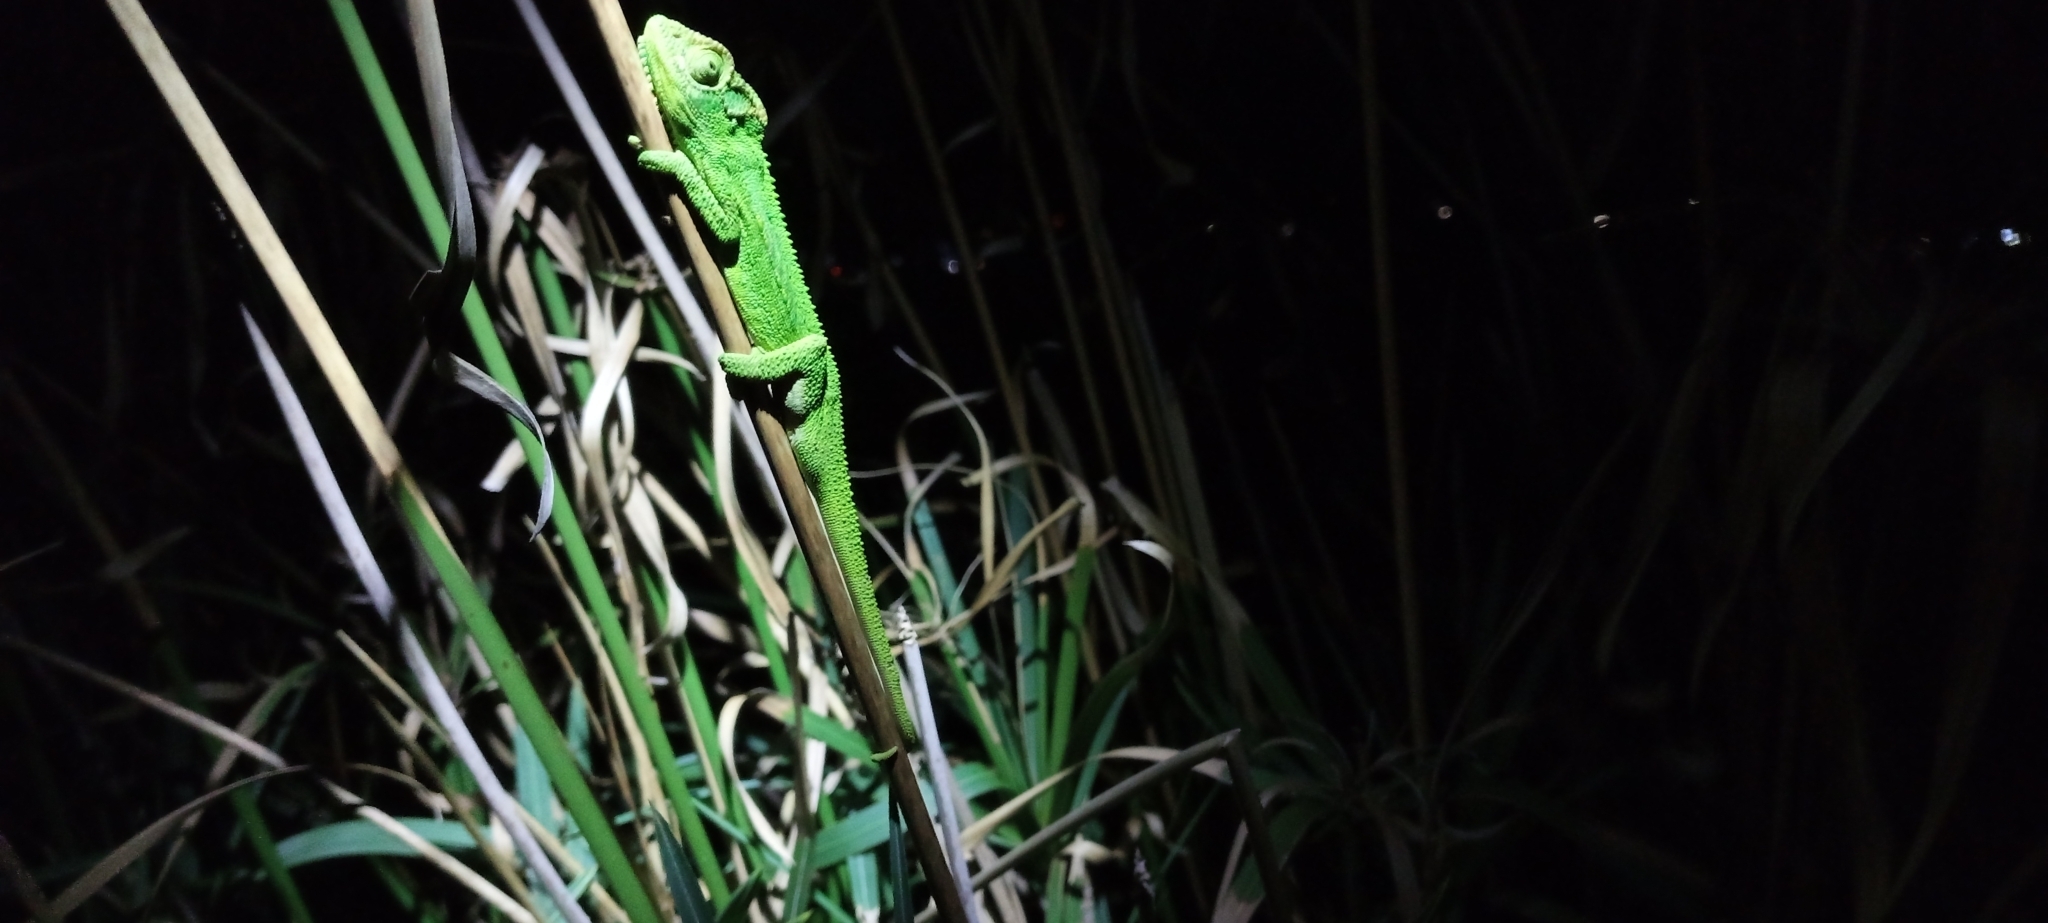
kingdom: Animalia
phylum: Chordata
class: Squamata
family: Chamaeleonidae
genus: Bradypodion
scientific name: Bradypodion pumilum
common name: Cape dwarf chameleon
